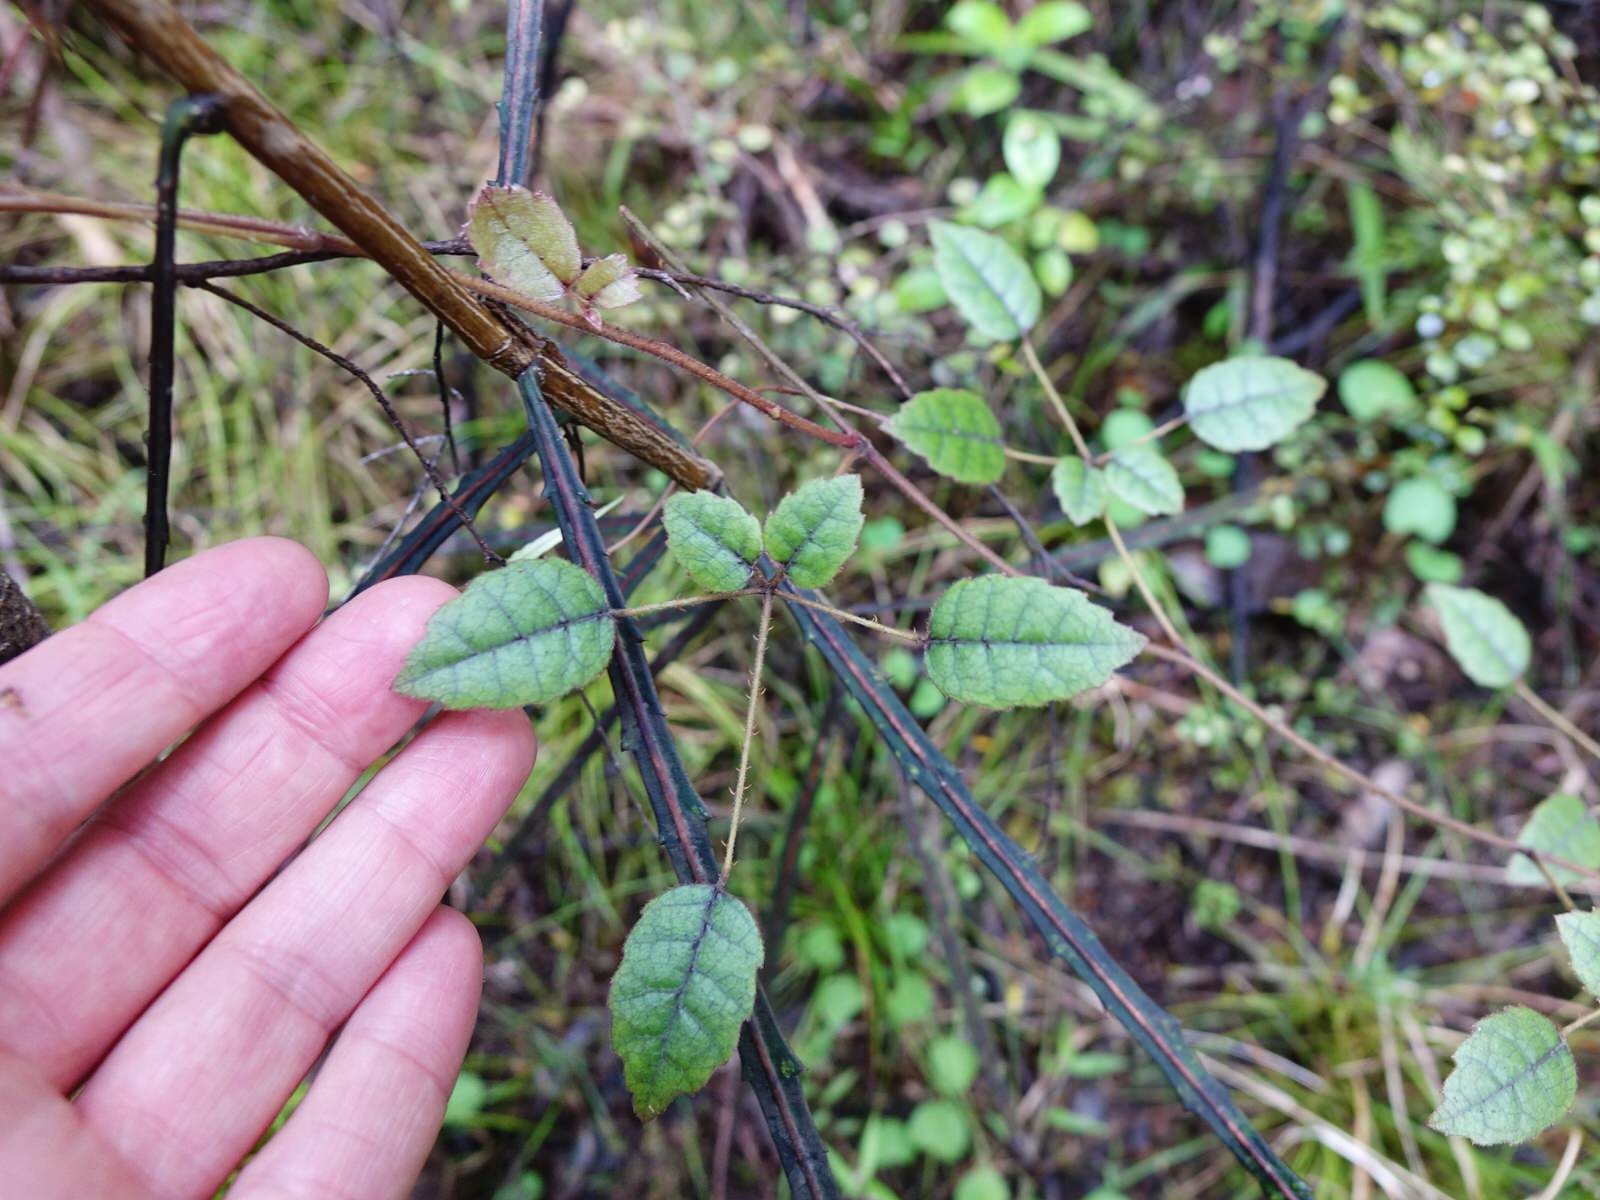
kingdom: Plantae
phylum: Tracheophyta
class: Magnoliopsida
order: Rosales
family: Rosaceae
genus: Rubus
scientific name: Rubus australis
